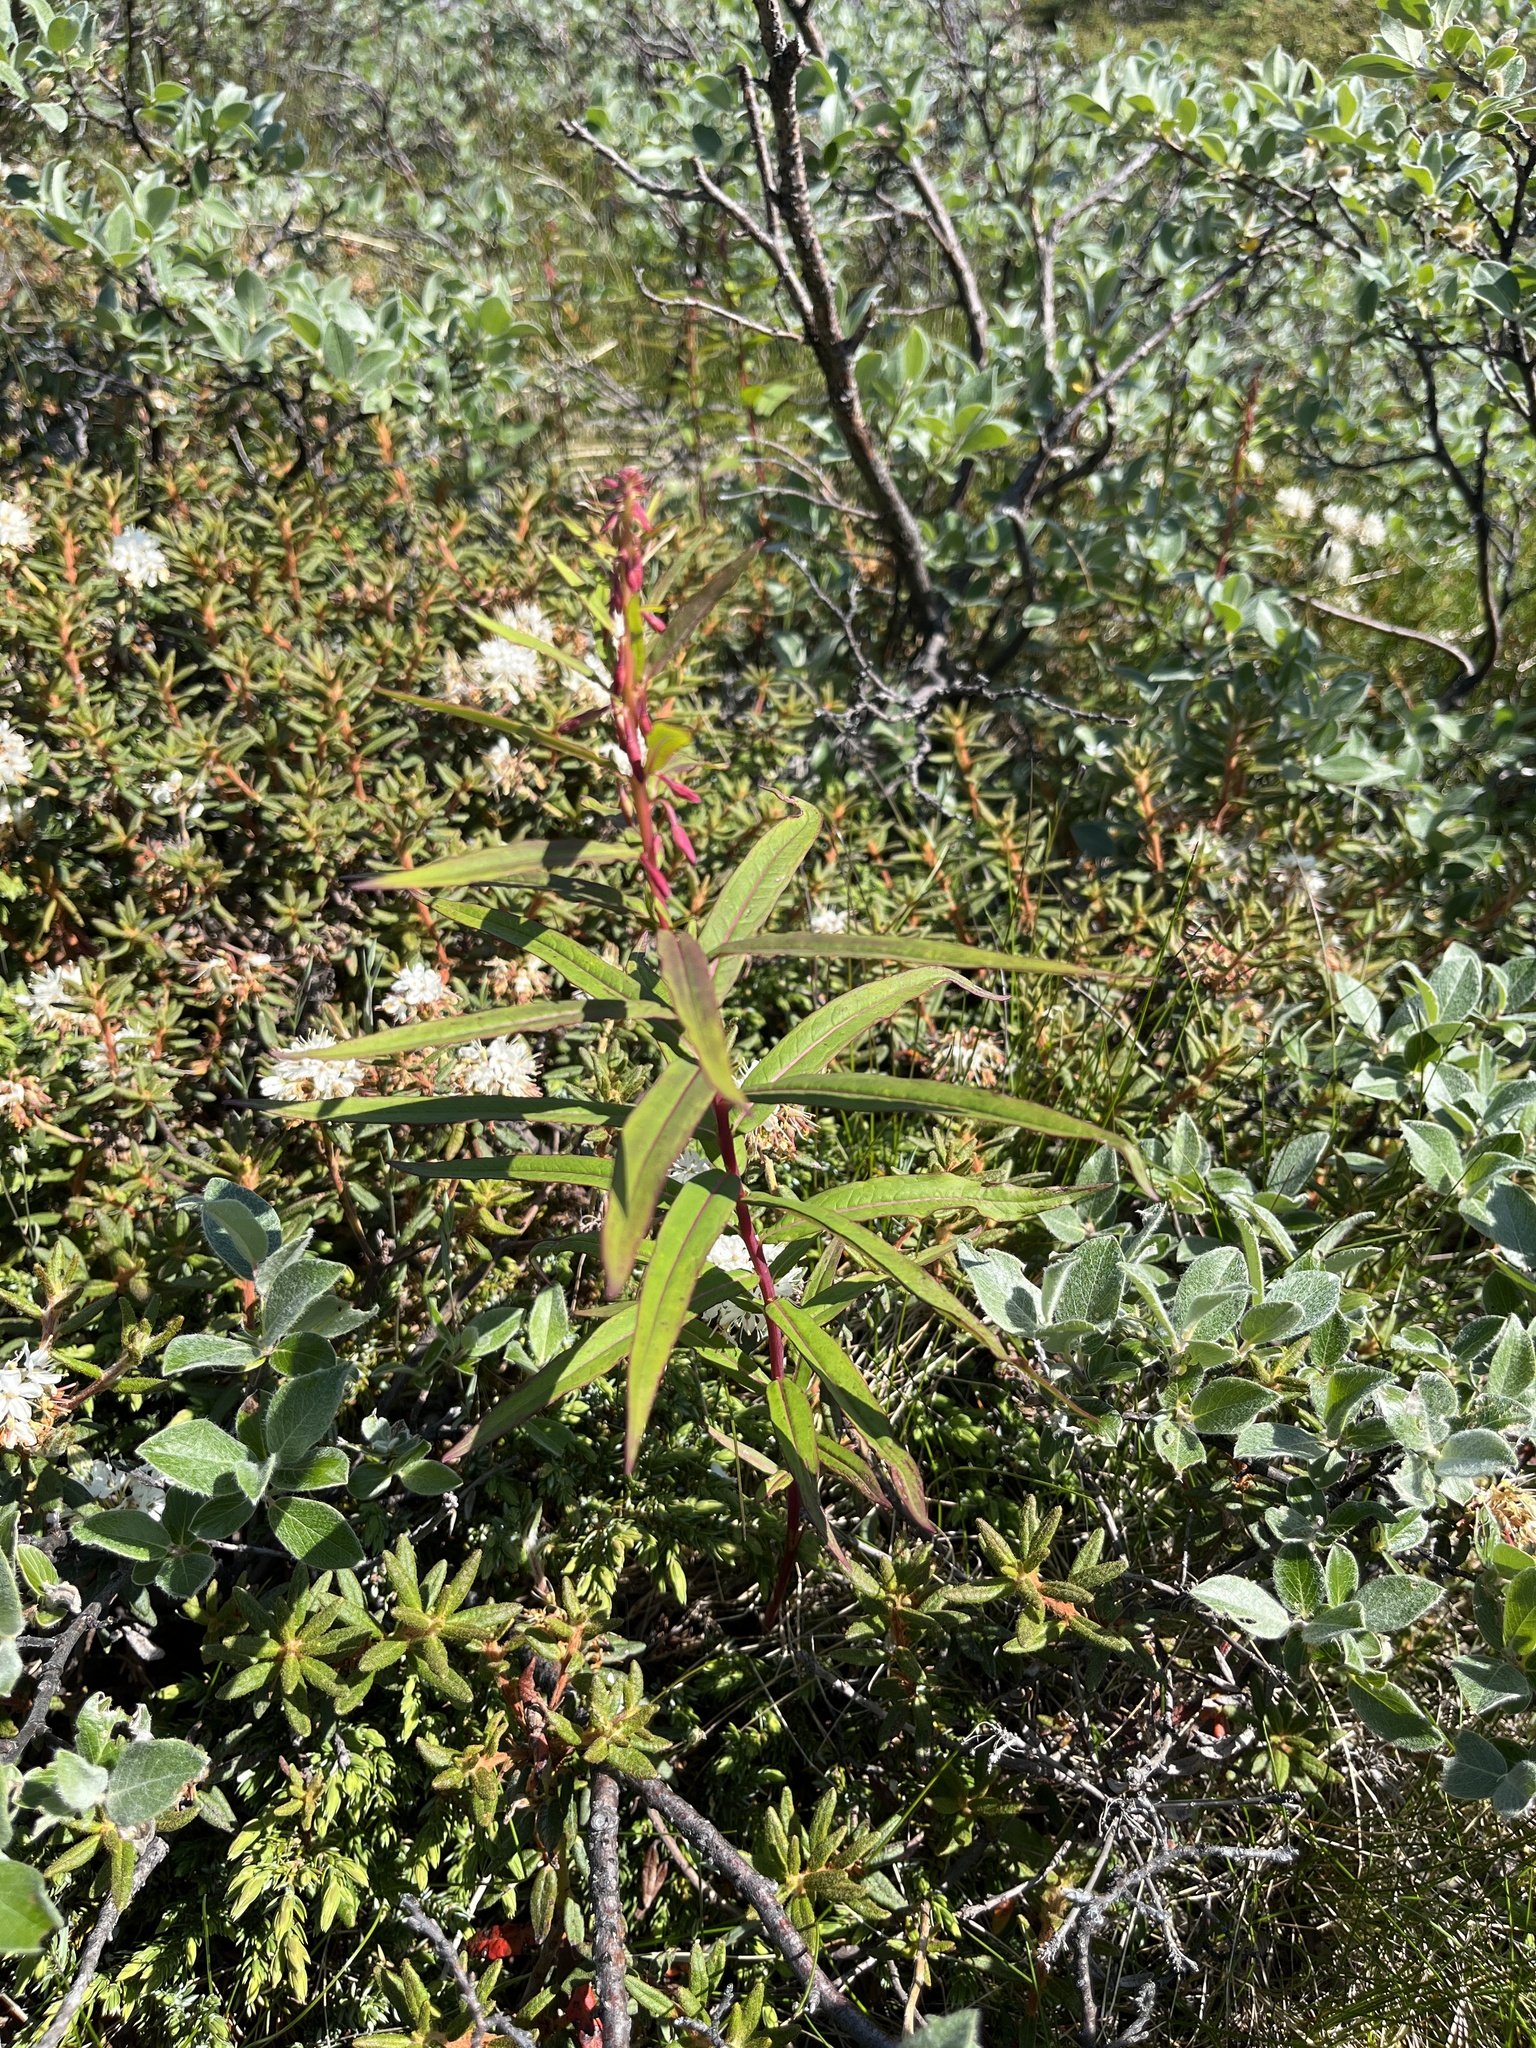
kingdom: Plantae
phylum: Tracheophyta
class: Magnoliopsida
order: Myrtales
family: Onagraceae
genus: Chamaenerion
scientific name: Chamaenerion angustifolium
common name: Fireweed
